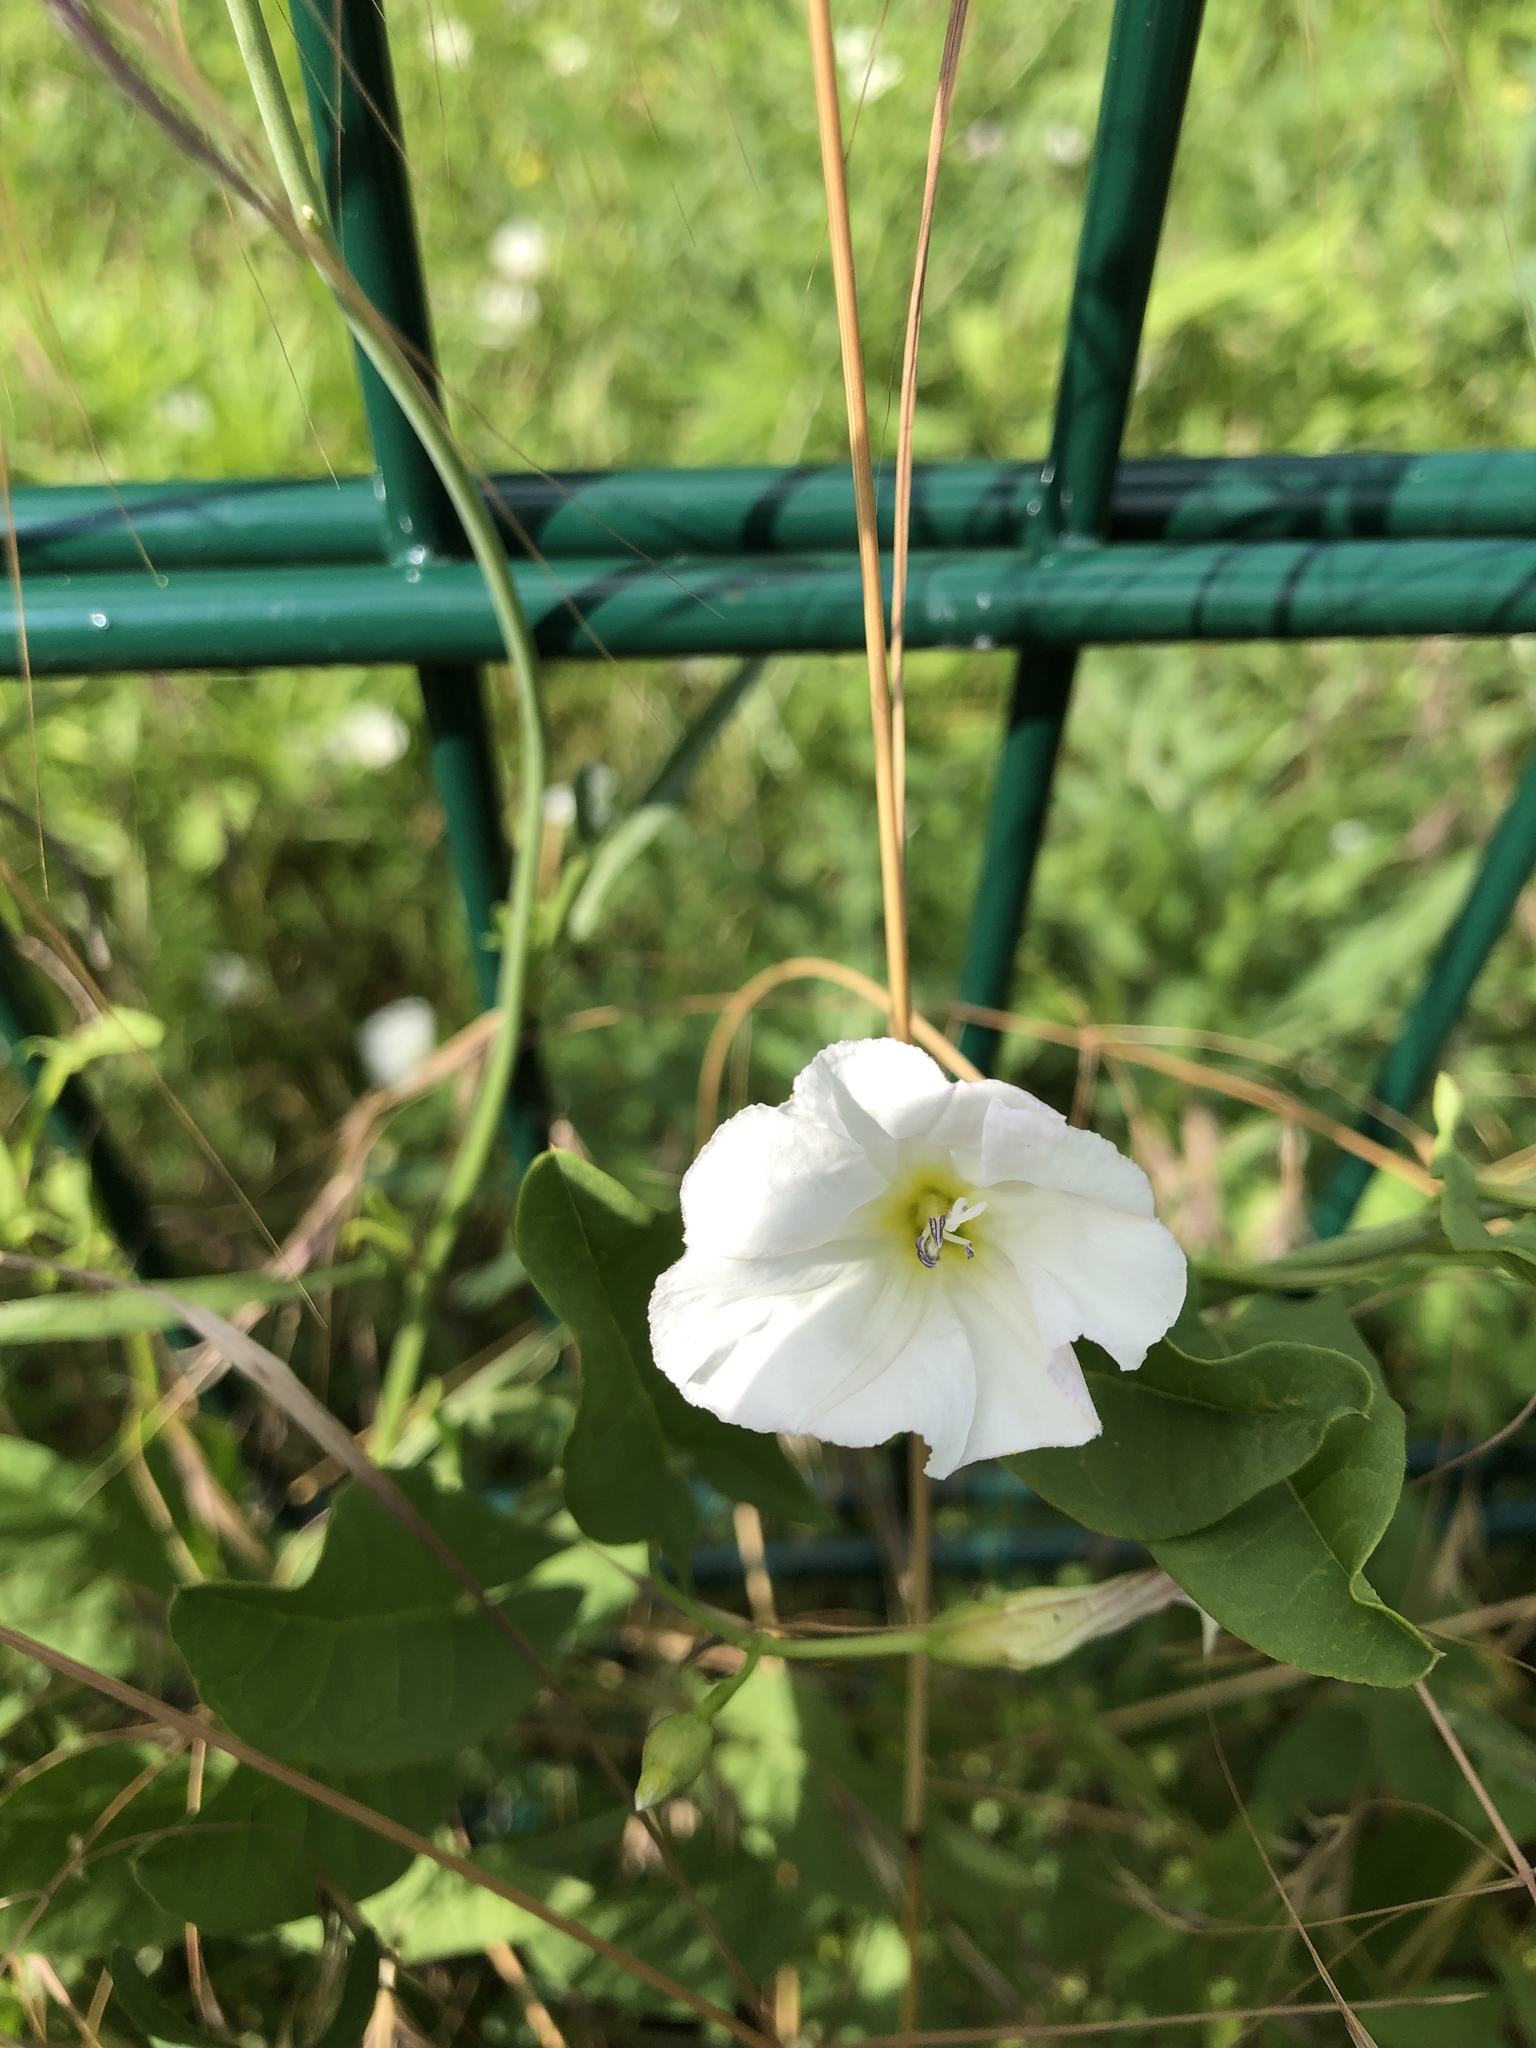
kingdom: Plantae
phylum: Tracheophyta
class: Magnoliopsida
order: Solanales
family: Convolvulaceae
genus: Convolvulus
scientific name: Convolvulus arvensis
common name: Field bindweed
